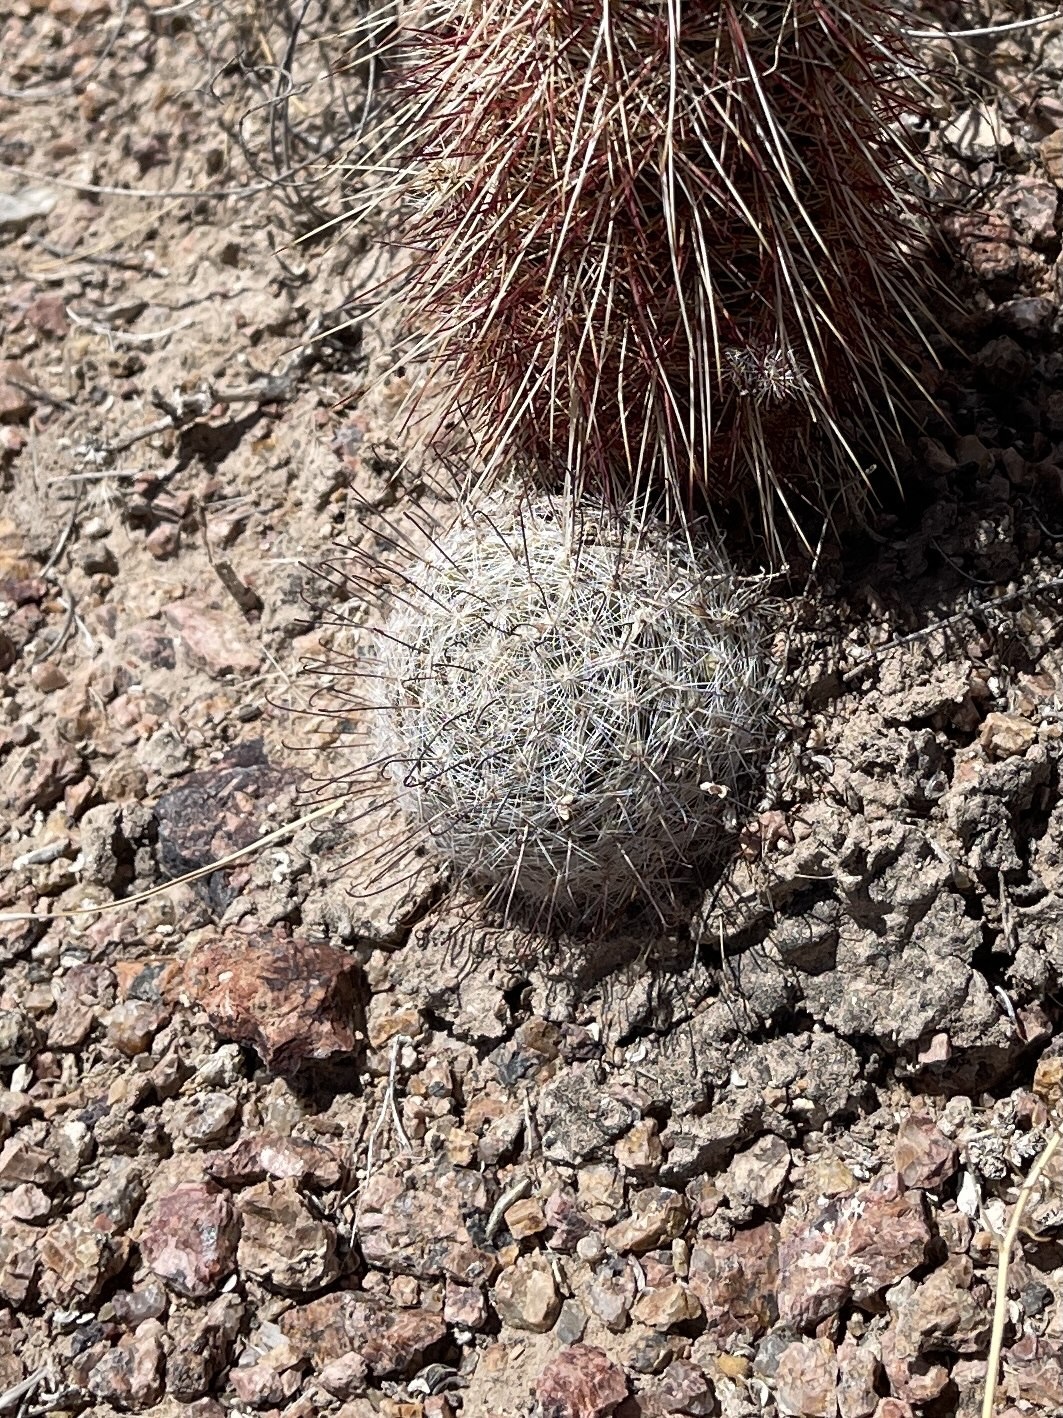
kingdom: Plantae
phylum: Tracheophyta
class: Magnoliopsida
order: Caryophyllales
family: Cactaceae
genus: Cochemiea
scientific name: Cochemiea grahamii
